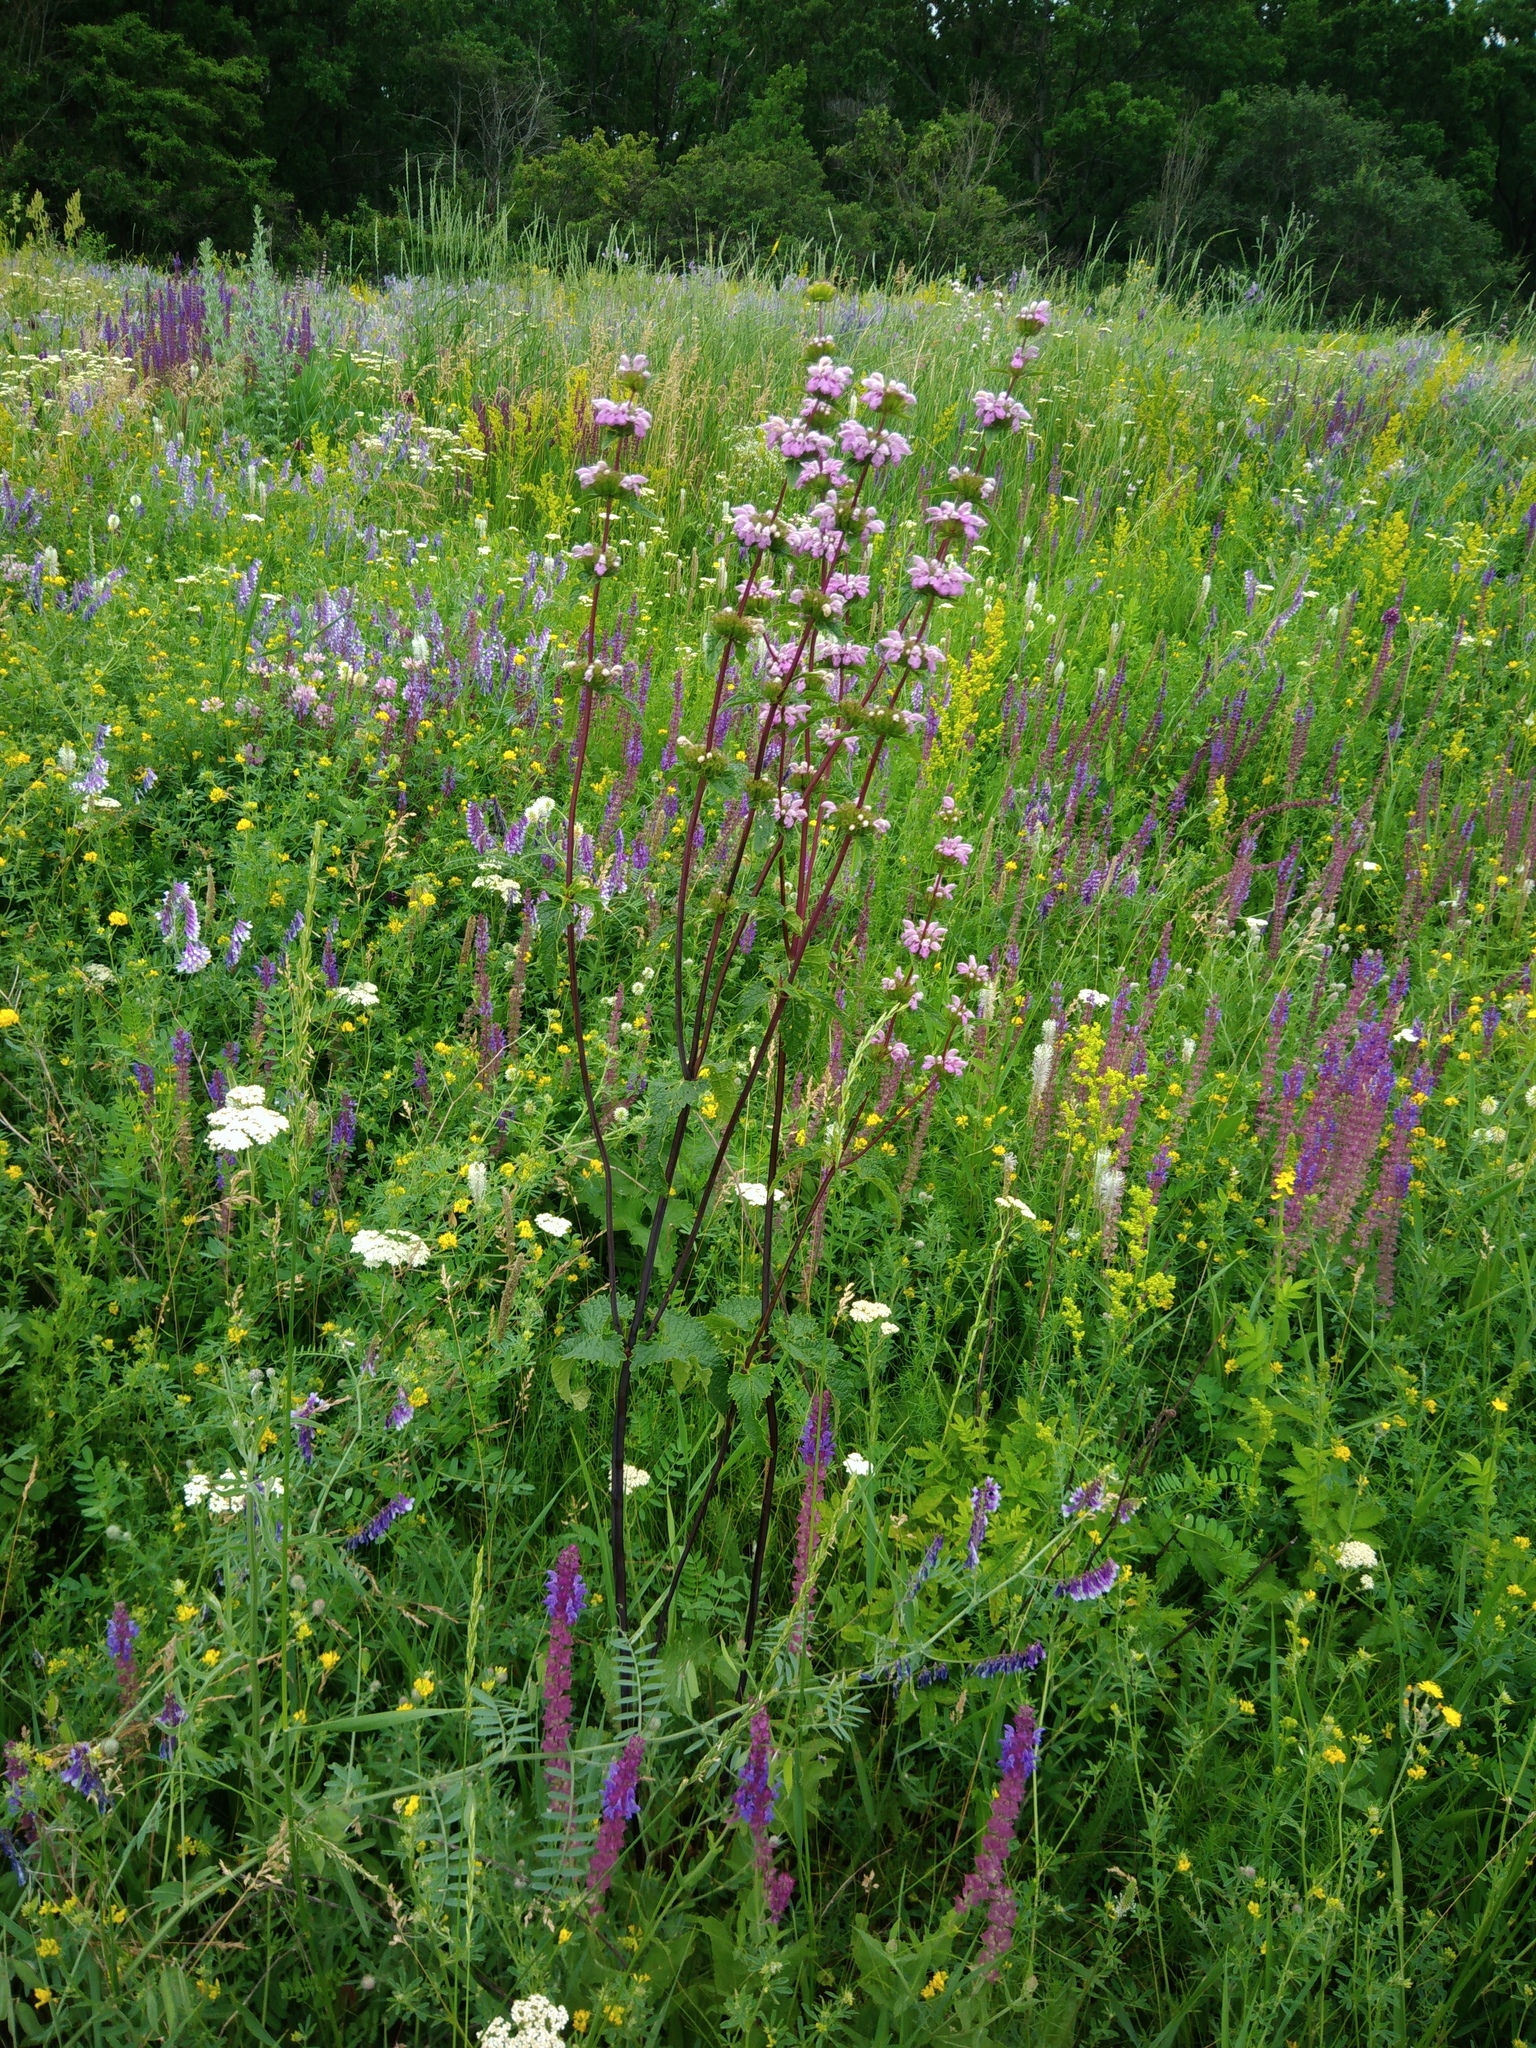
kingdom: Plantae
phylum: Tracheophyta
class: Magnoliopsida
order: Lamiales
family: Lamiaceae
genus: Phlomoides
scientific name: Phlomoides tuberosa
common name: Tuberous jerusalem sage
